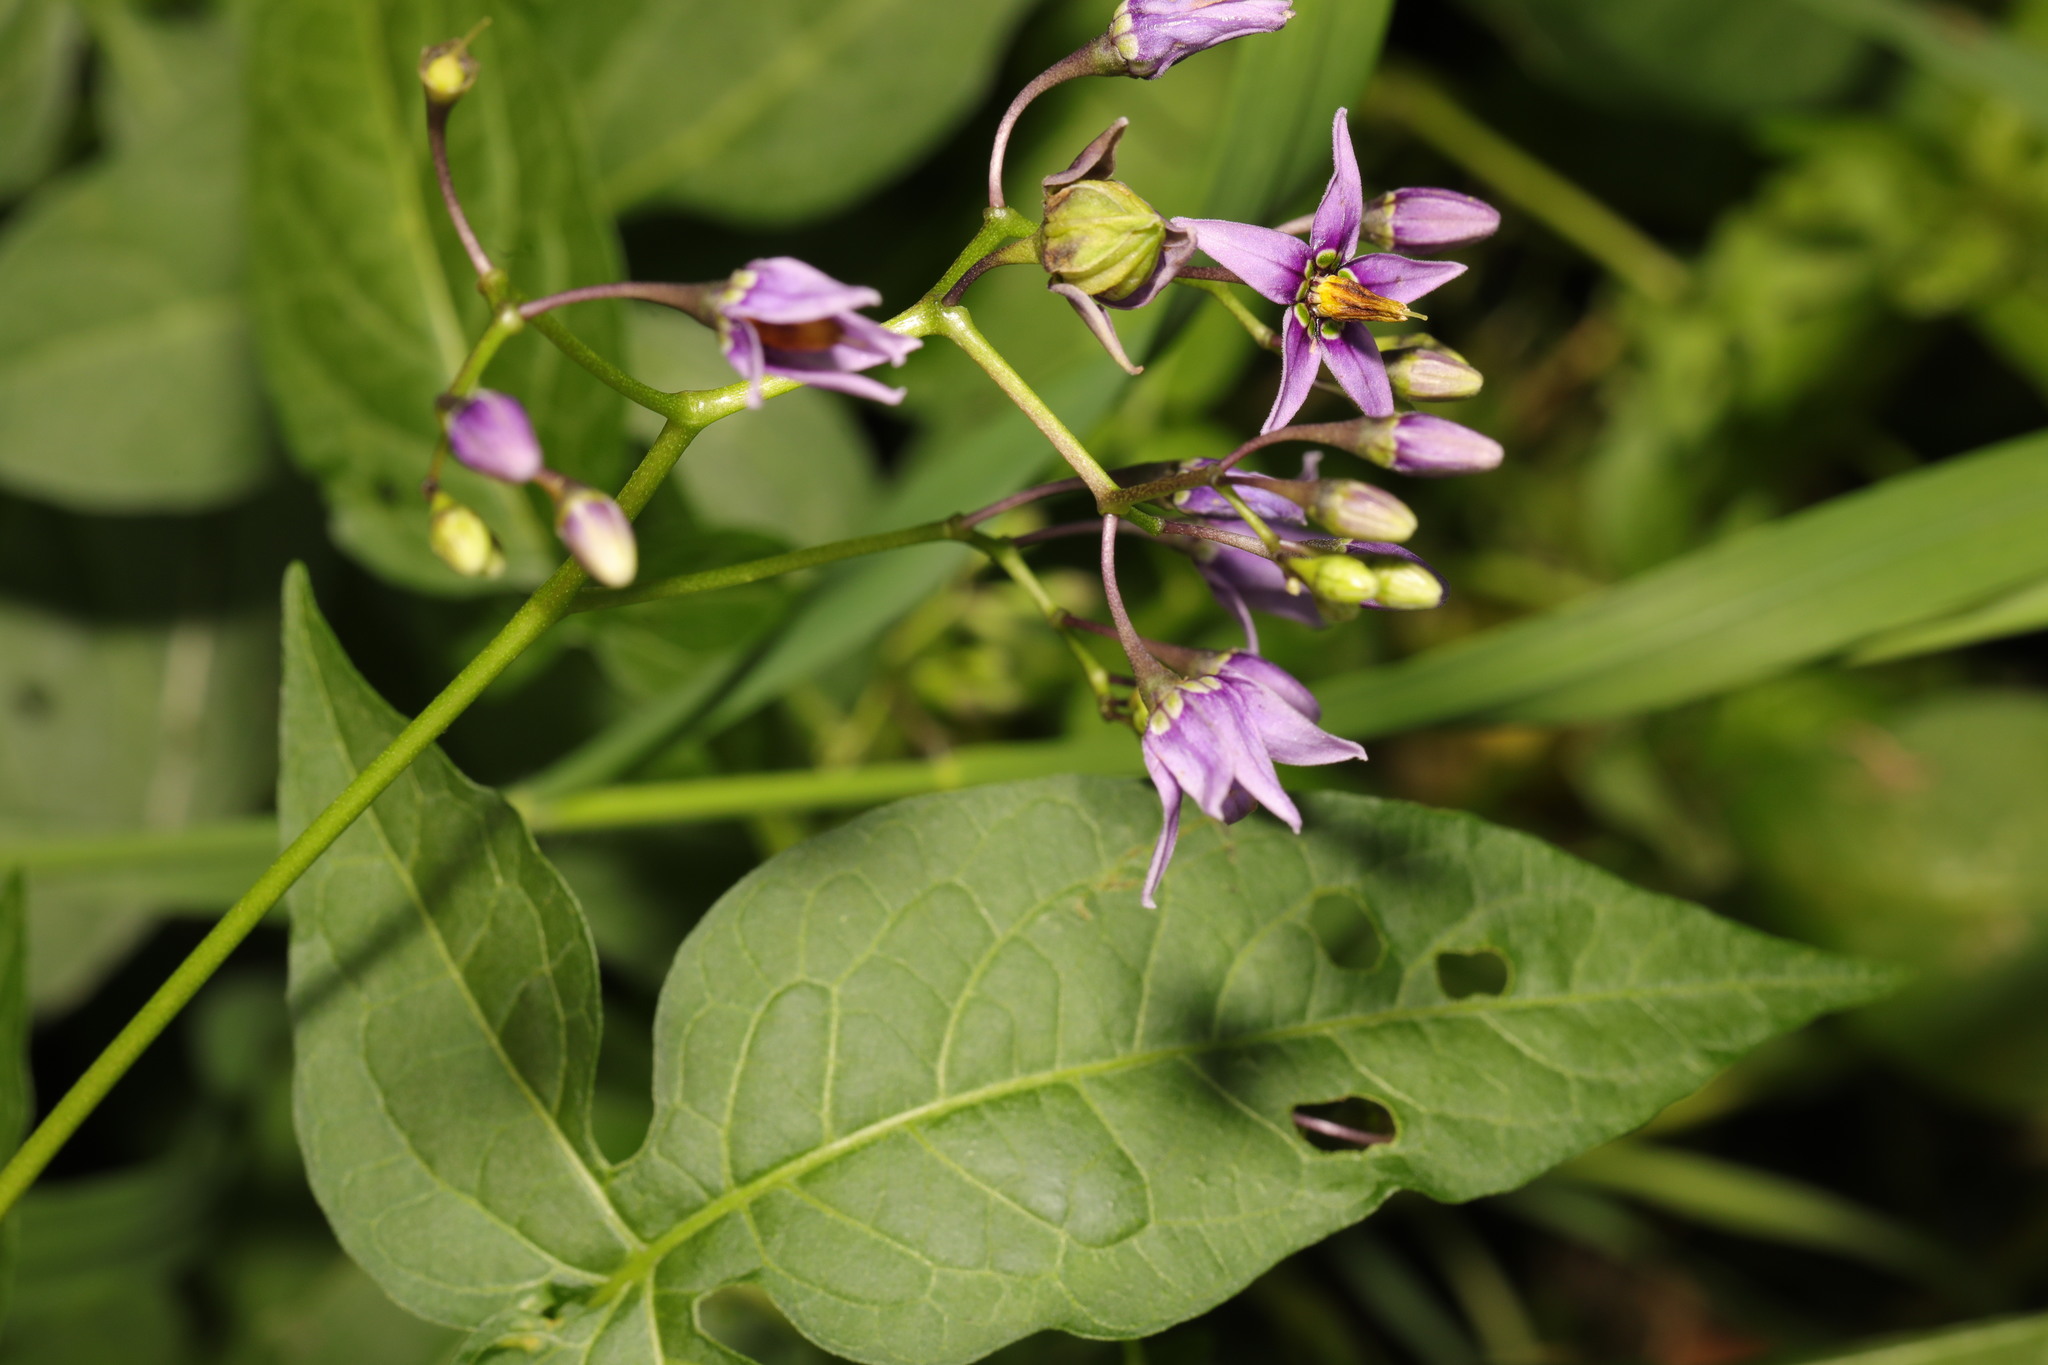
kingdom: Plantae
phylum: Tracheophyta
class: Magnoliopsida
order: Solanales
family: Solanaceae
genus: Solanum
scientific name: Solanum dulcamara
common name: Climbing nightshade
